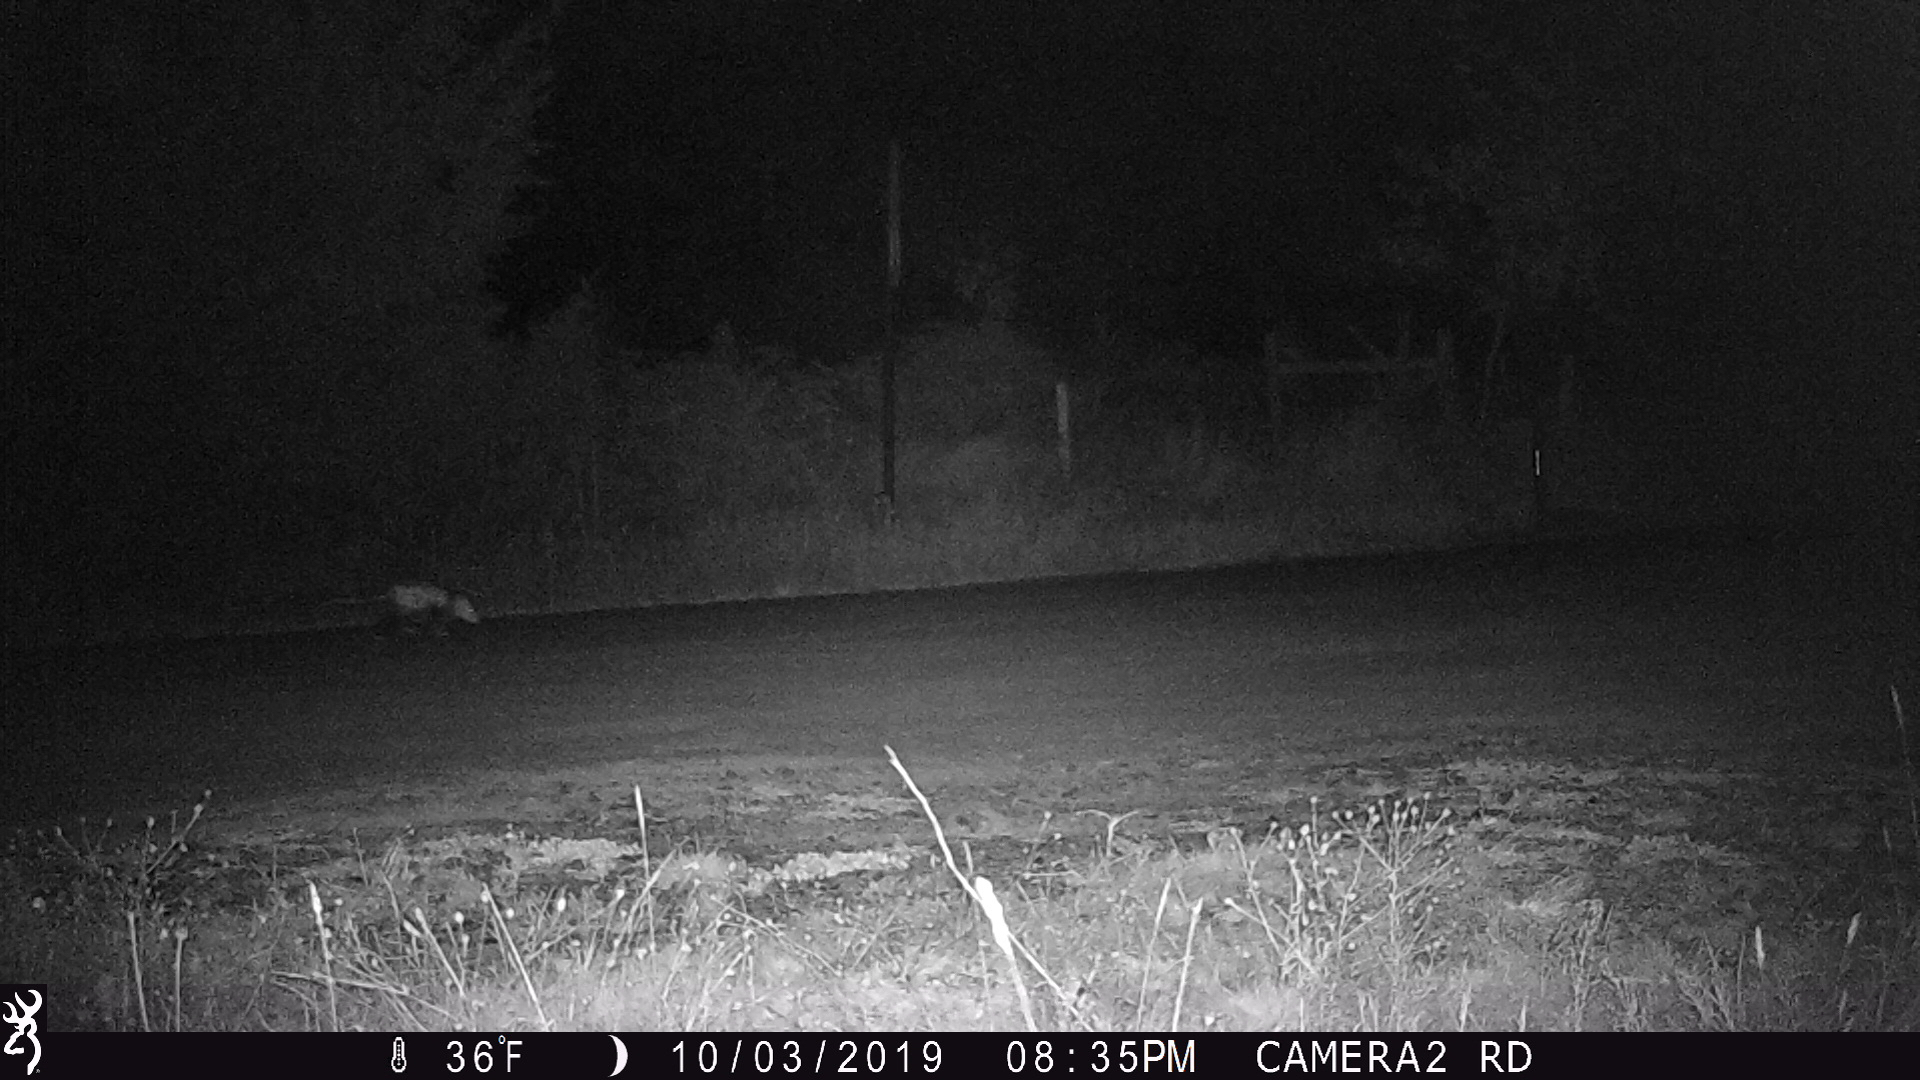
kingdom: Animalia
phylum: Chordata
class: Mammalia
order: Didelphimorphia
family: Didelphidae
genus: Didelphis
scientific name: Didelphis virginiana
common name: Virginia opossum
